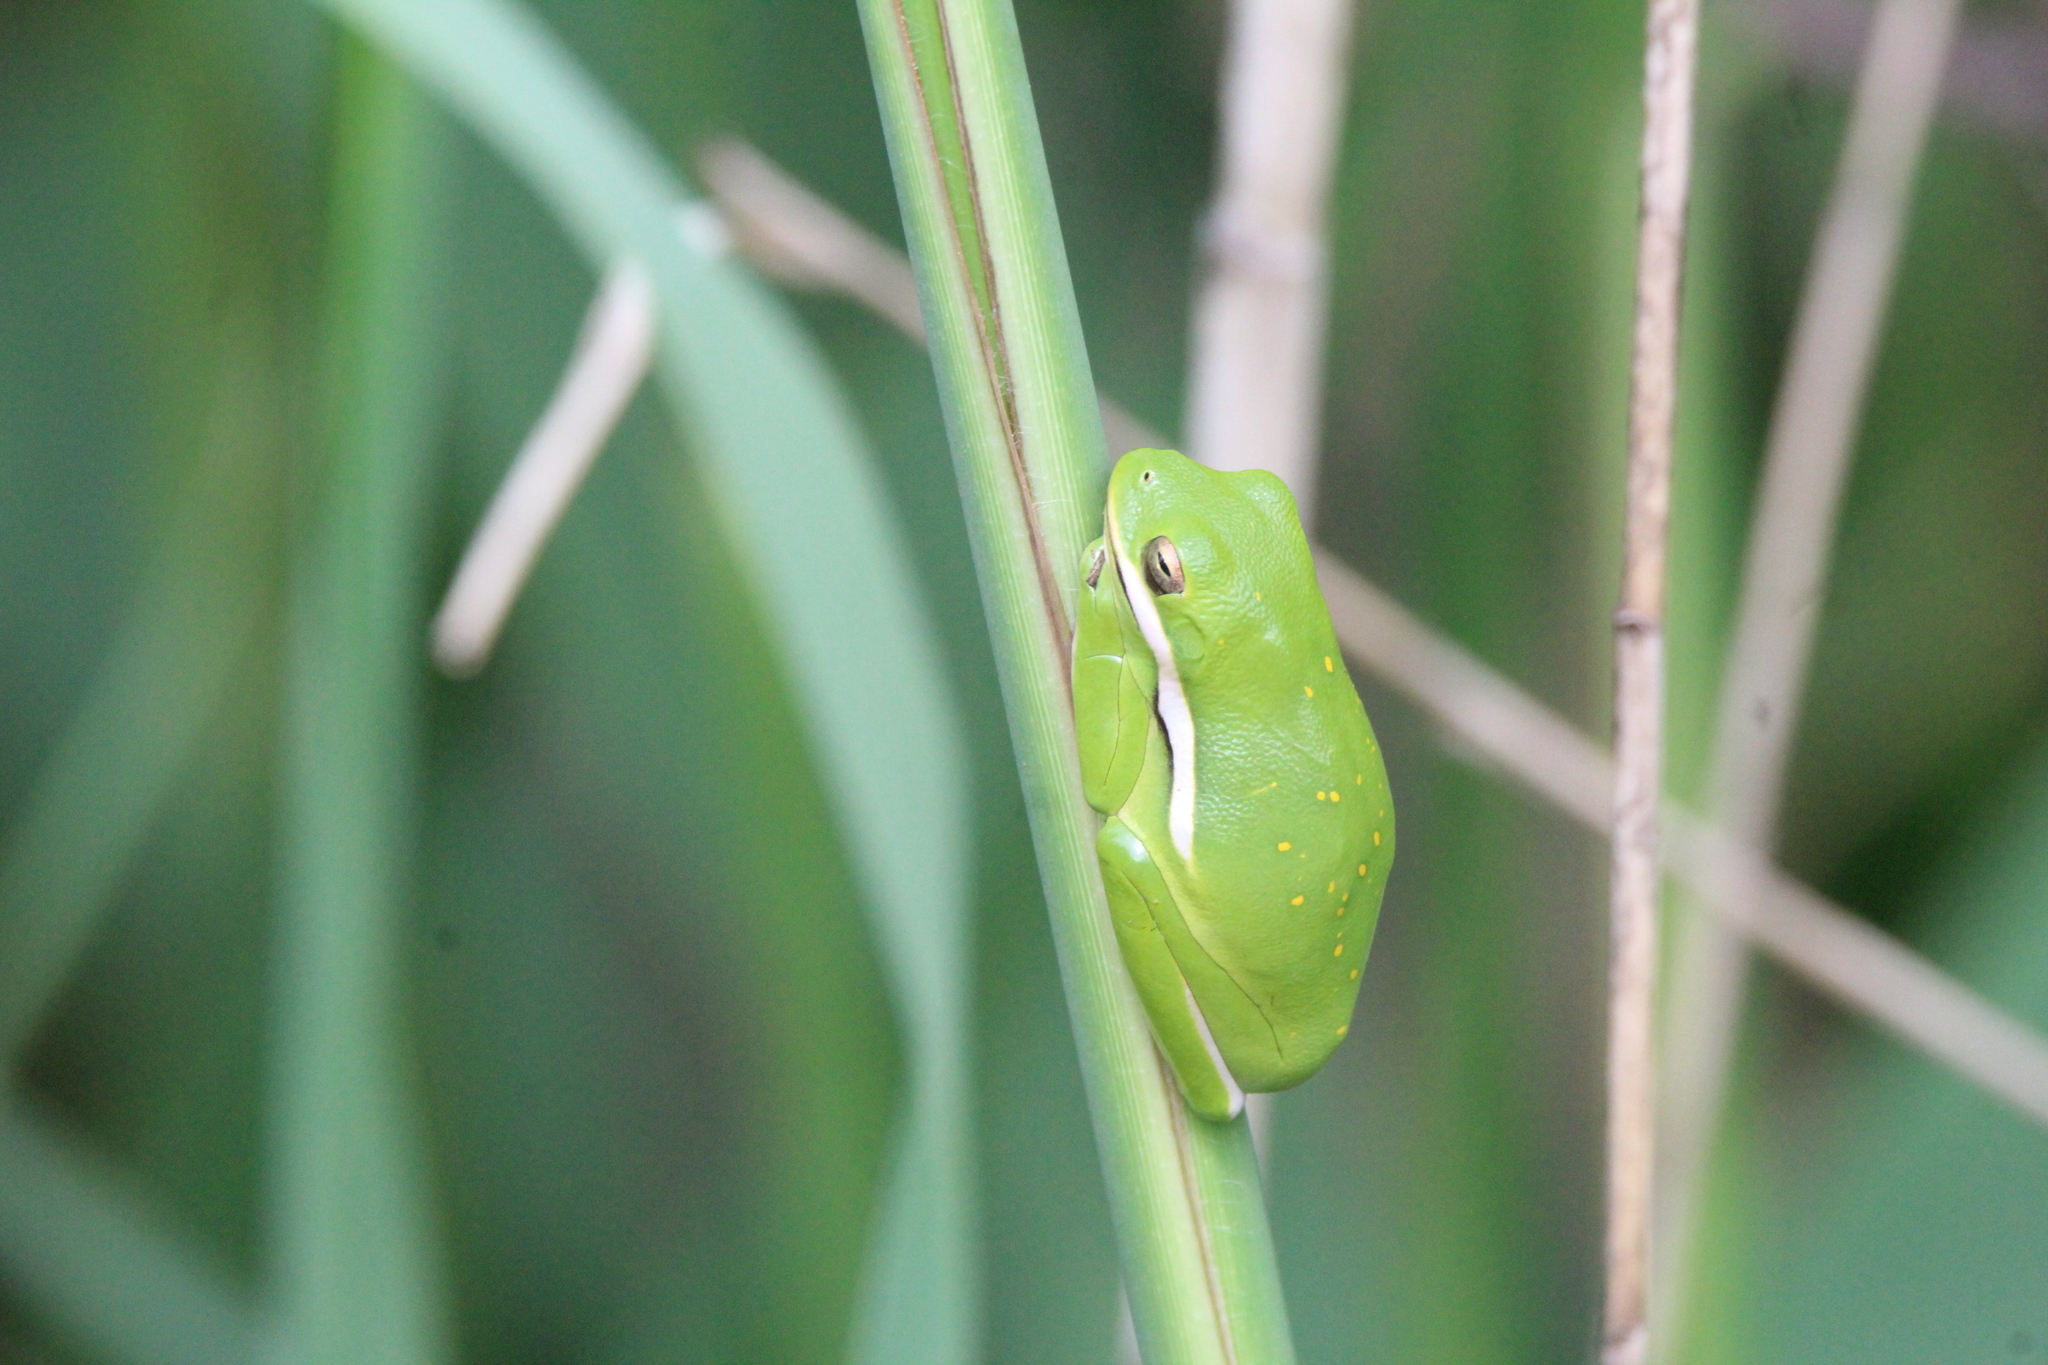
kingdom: Animalia
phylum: Chordata
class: Amphibia
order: Anura
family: Hylidae
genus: Dryophytes
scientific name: Dryophytes cinereus
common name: Green treefrog
